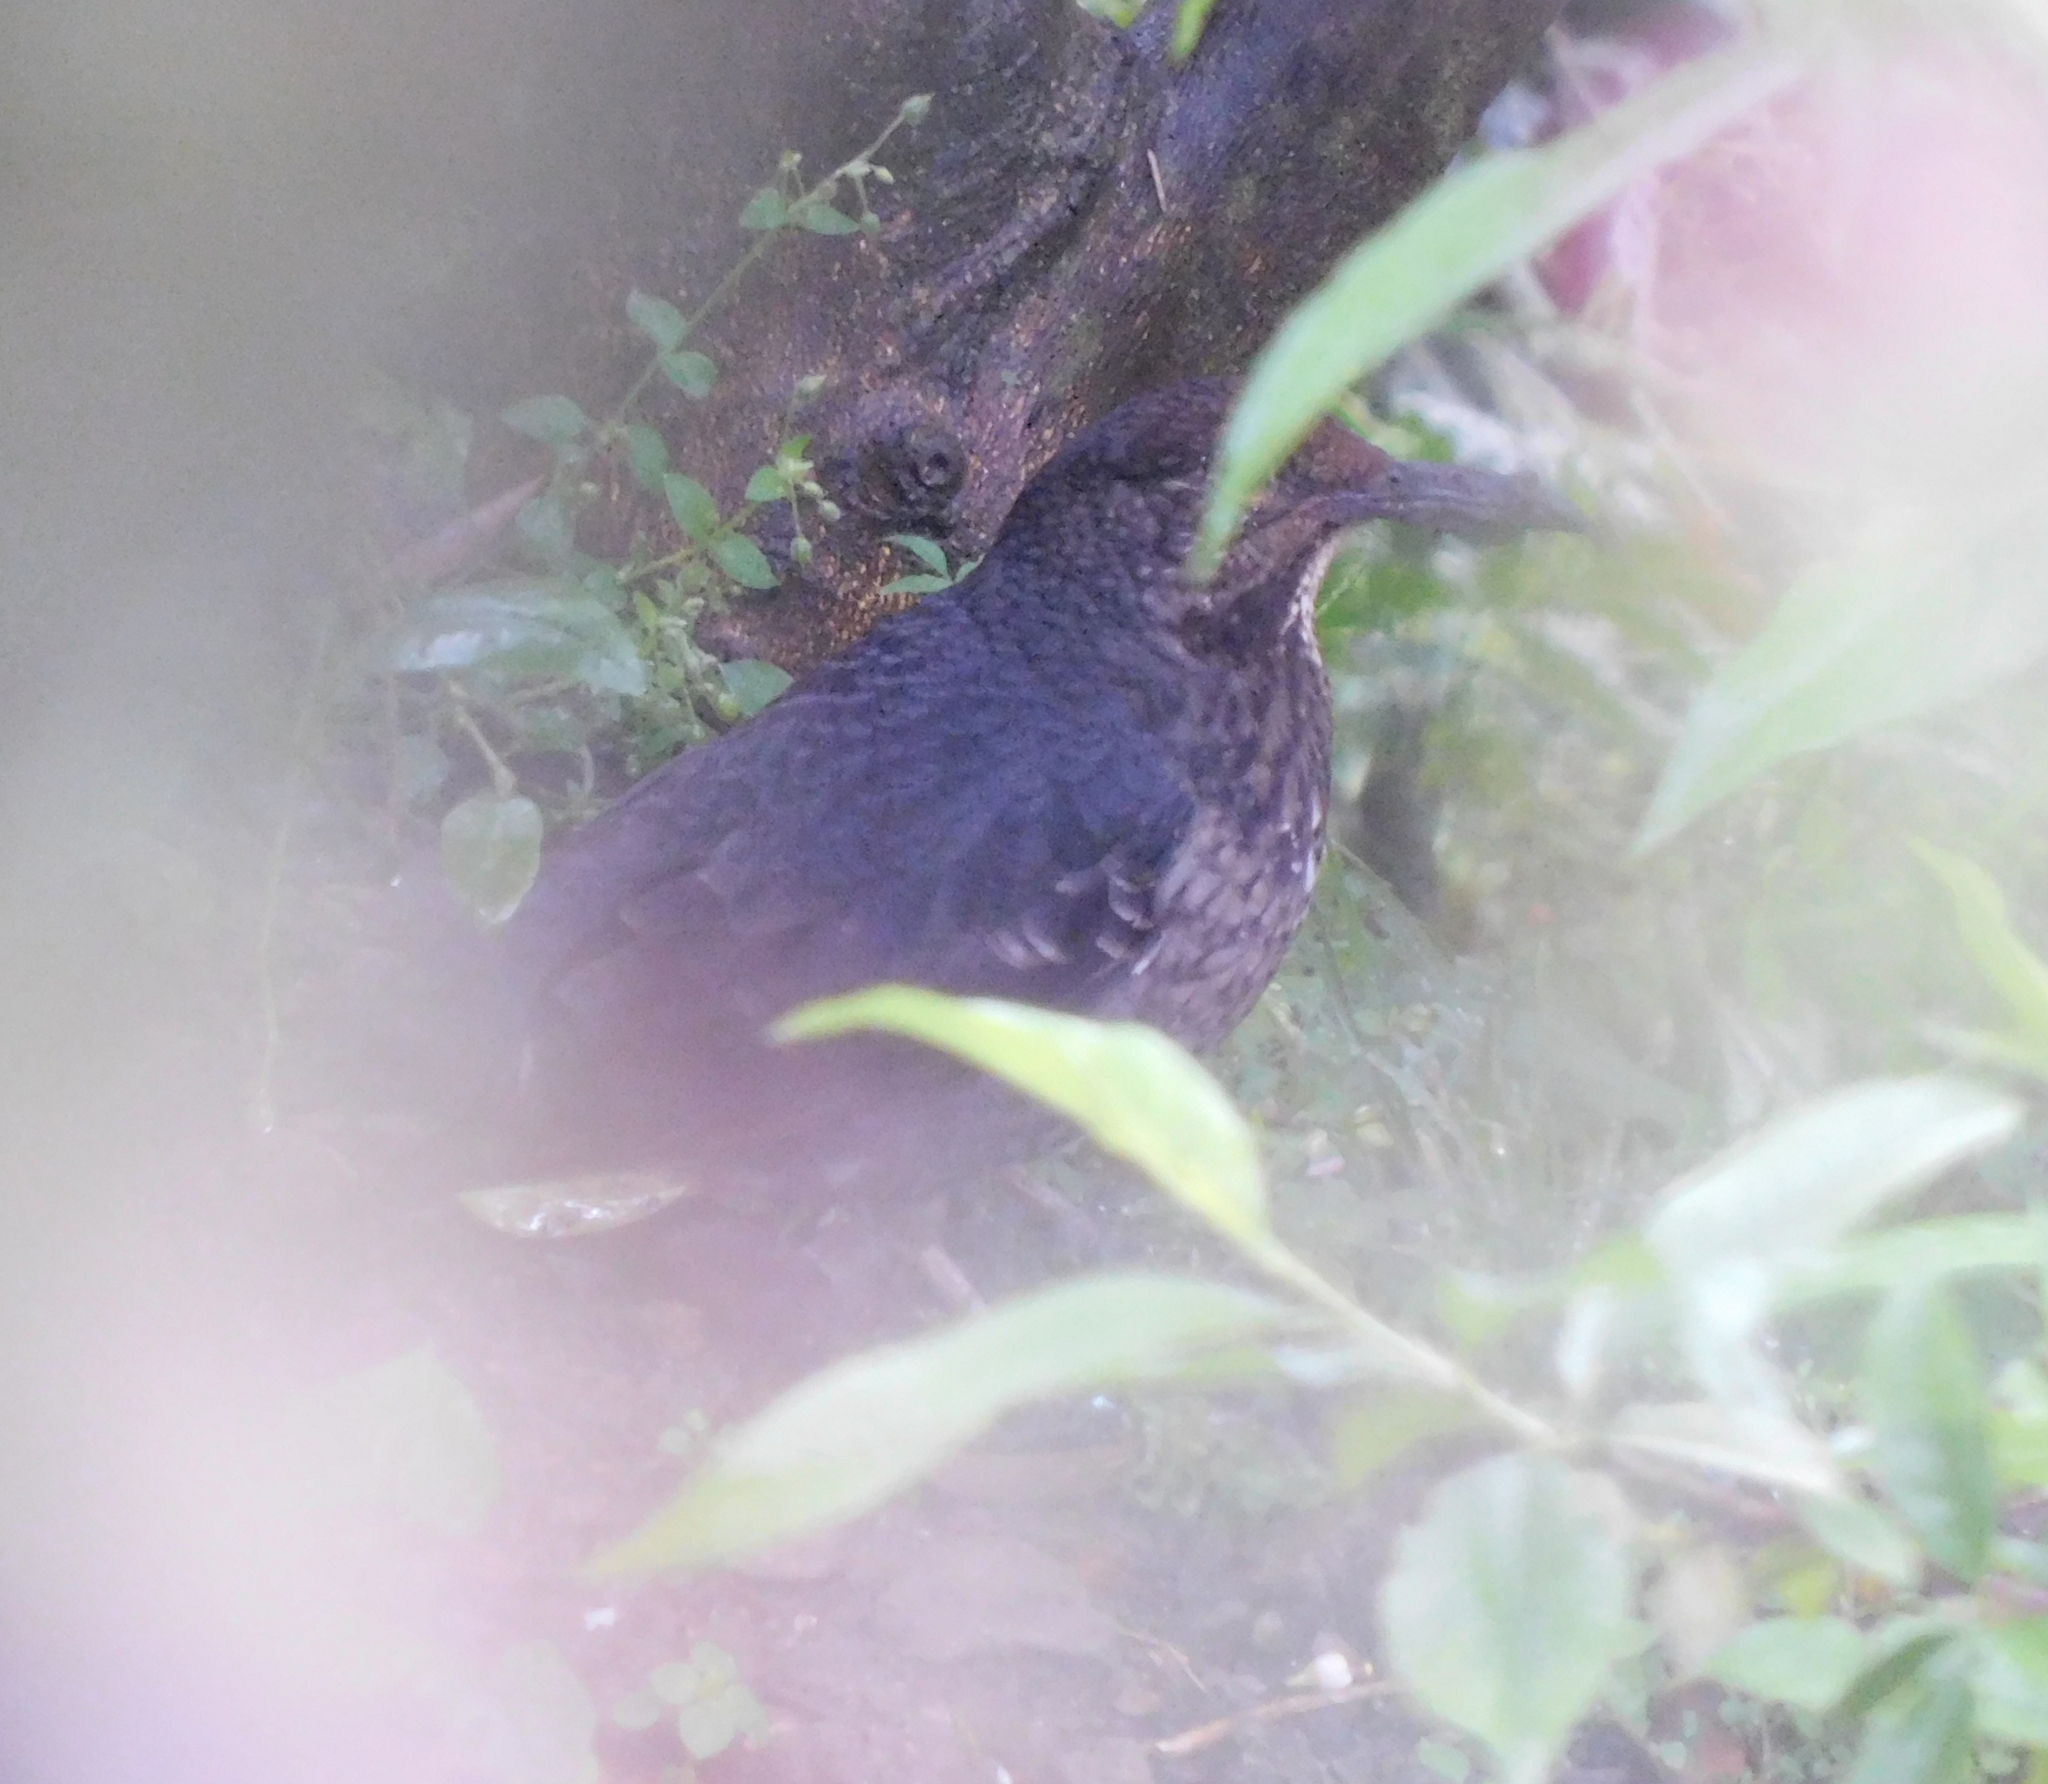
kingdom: Animalia
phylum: Chordata
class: Aves
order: Passeriformes
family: Turdidae
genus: Zoothera
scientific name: Zoothera monticola
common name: Long-billed thrush
